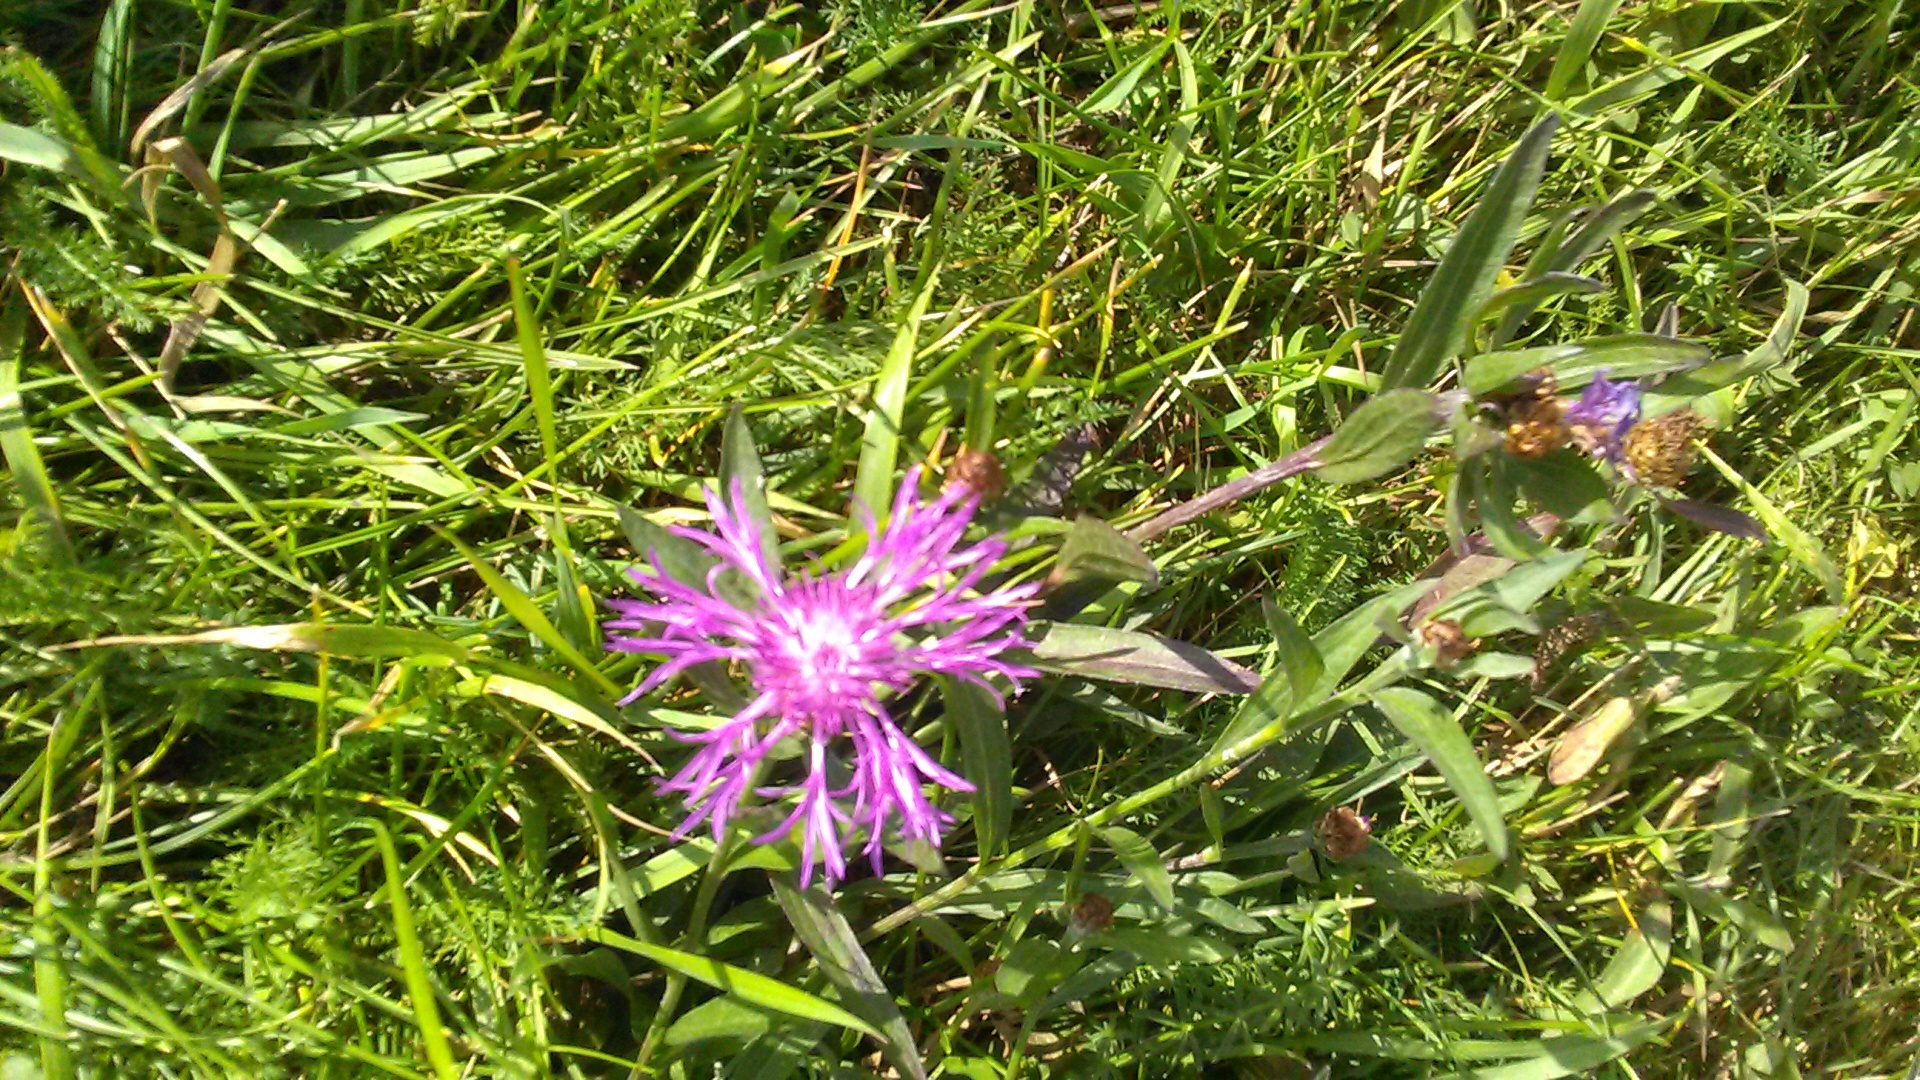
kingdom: Plantae
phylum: Tracheophyta
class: Magnoliopsida
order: Asterales
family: Asteraceae
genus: Centaurea
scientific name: Centaurea jacea
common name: Brown knapweed
